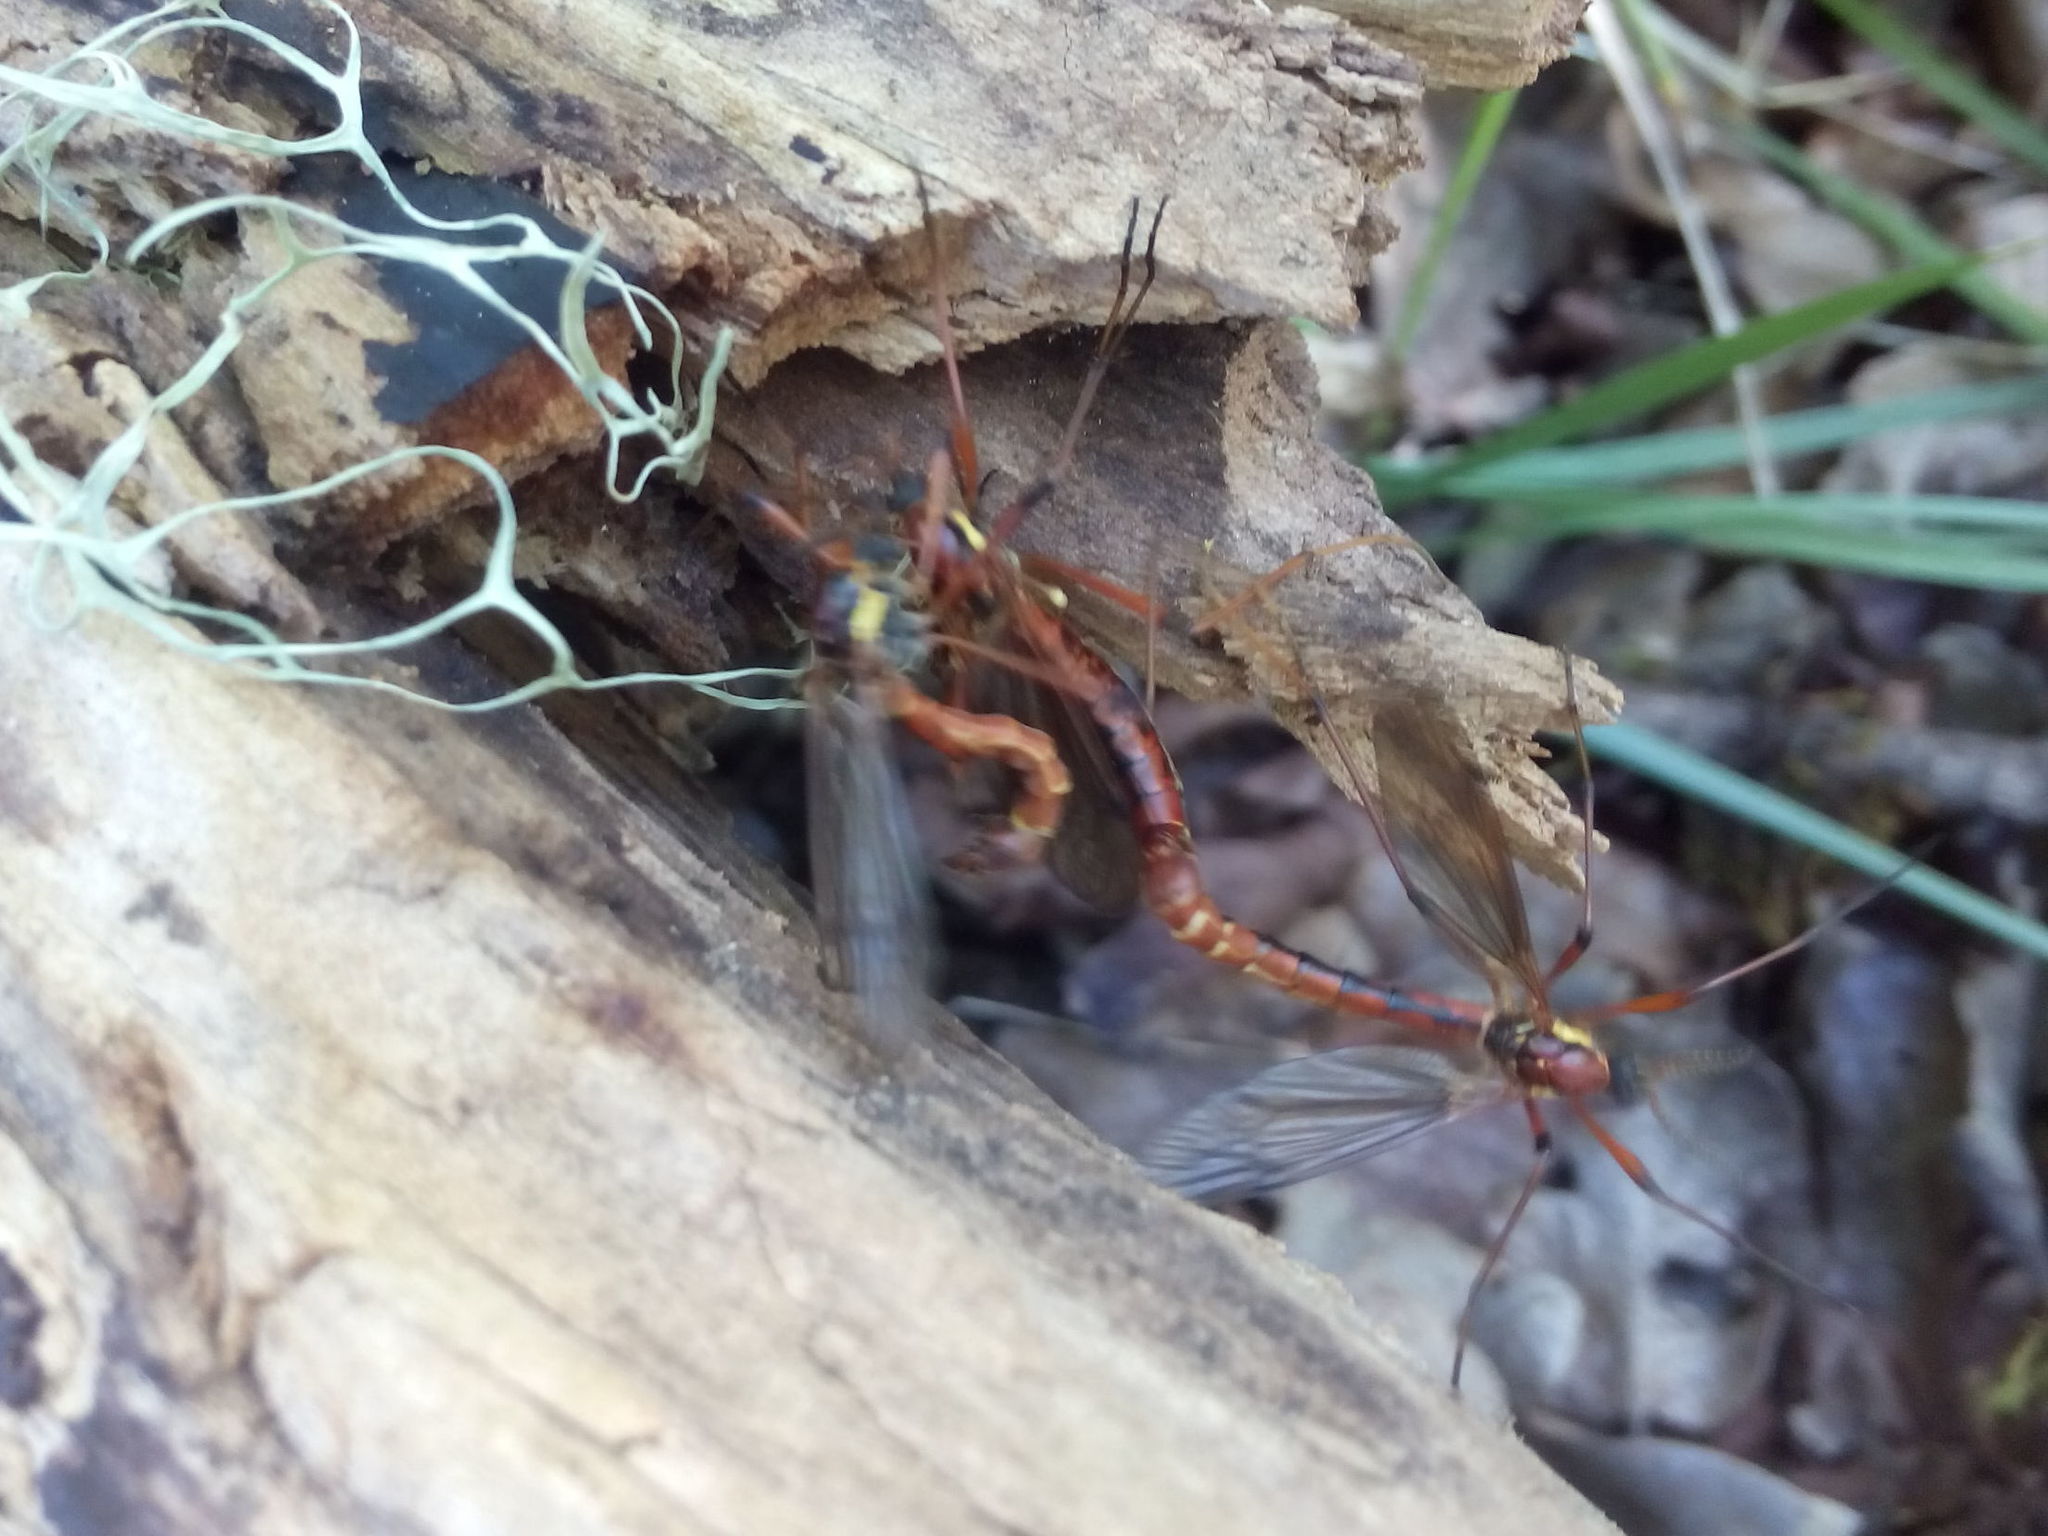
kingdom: Animalia
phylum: Arthropoda
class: Insecta
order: Diptera
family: Tipulidae
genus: Phoroctenia
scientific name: Phoroctenia vittata
